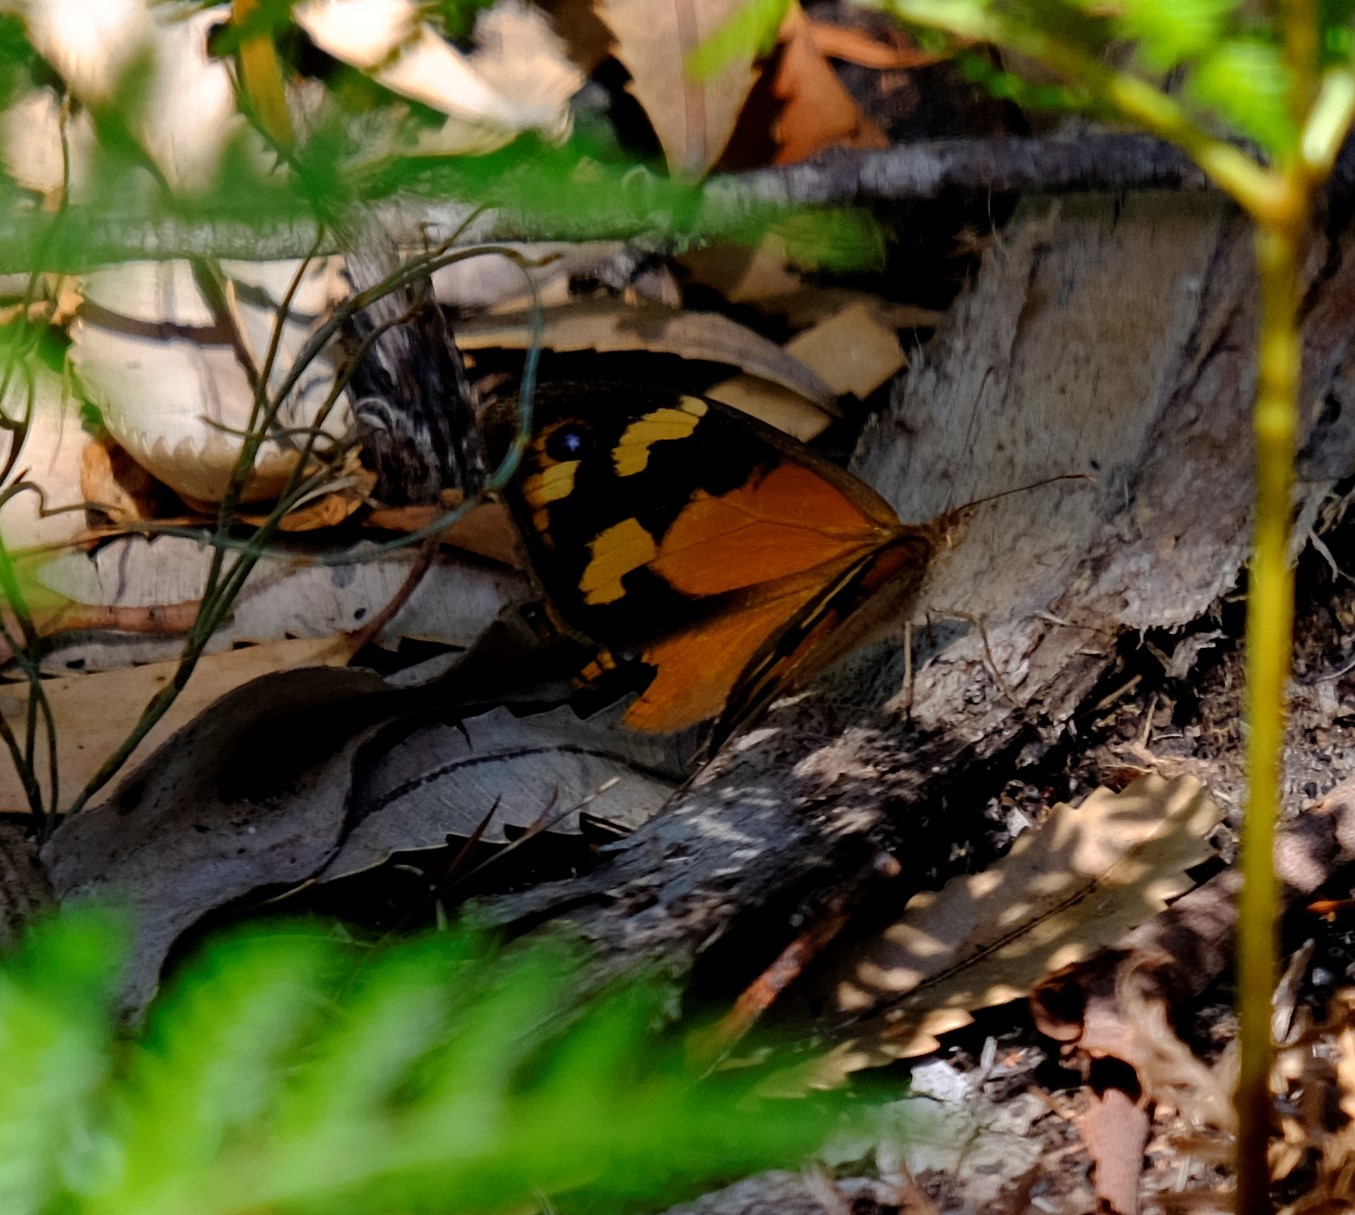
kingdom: Animalia
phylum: Arthropoda
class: Insecta
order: Lepidoptera
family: Nymphalidae
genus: Heteronympha
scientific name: Heteronympha merope
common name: Common brown
